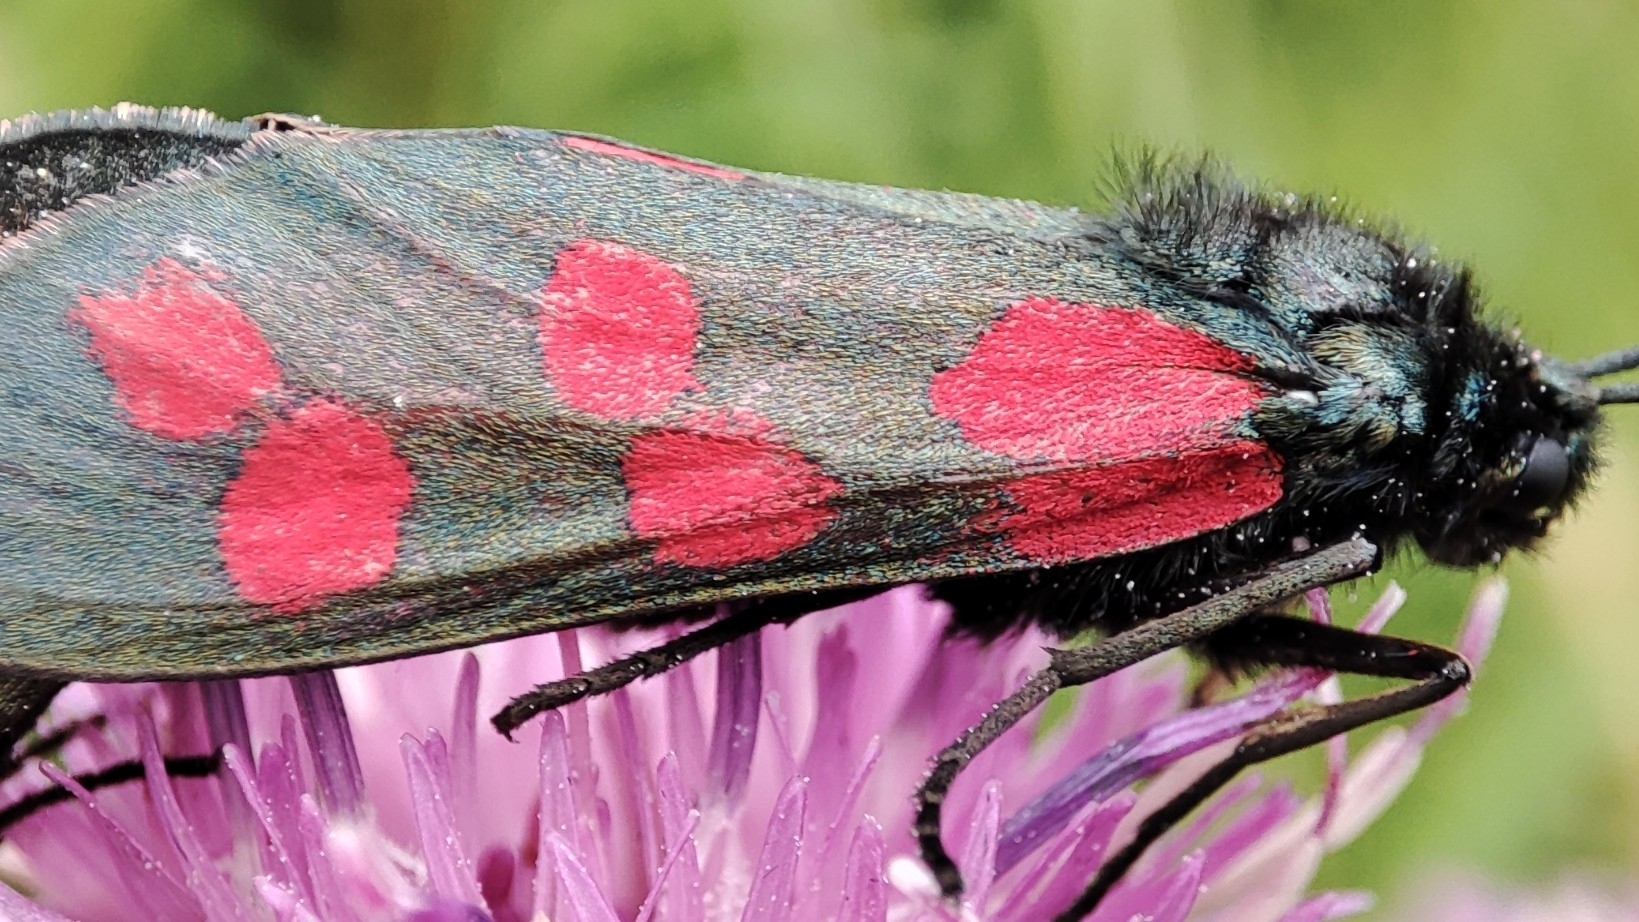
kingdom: Animalia
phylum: Arthropoda
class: Insecta
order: Lepidoptera
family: Zygaenidae
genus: Zygaena
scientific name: Zygaena filipendulae
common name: Six-spot burnet
